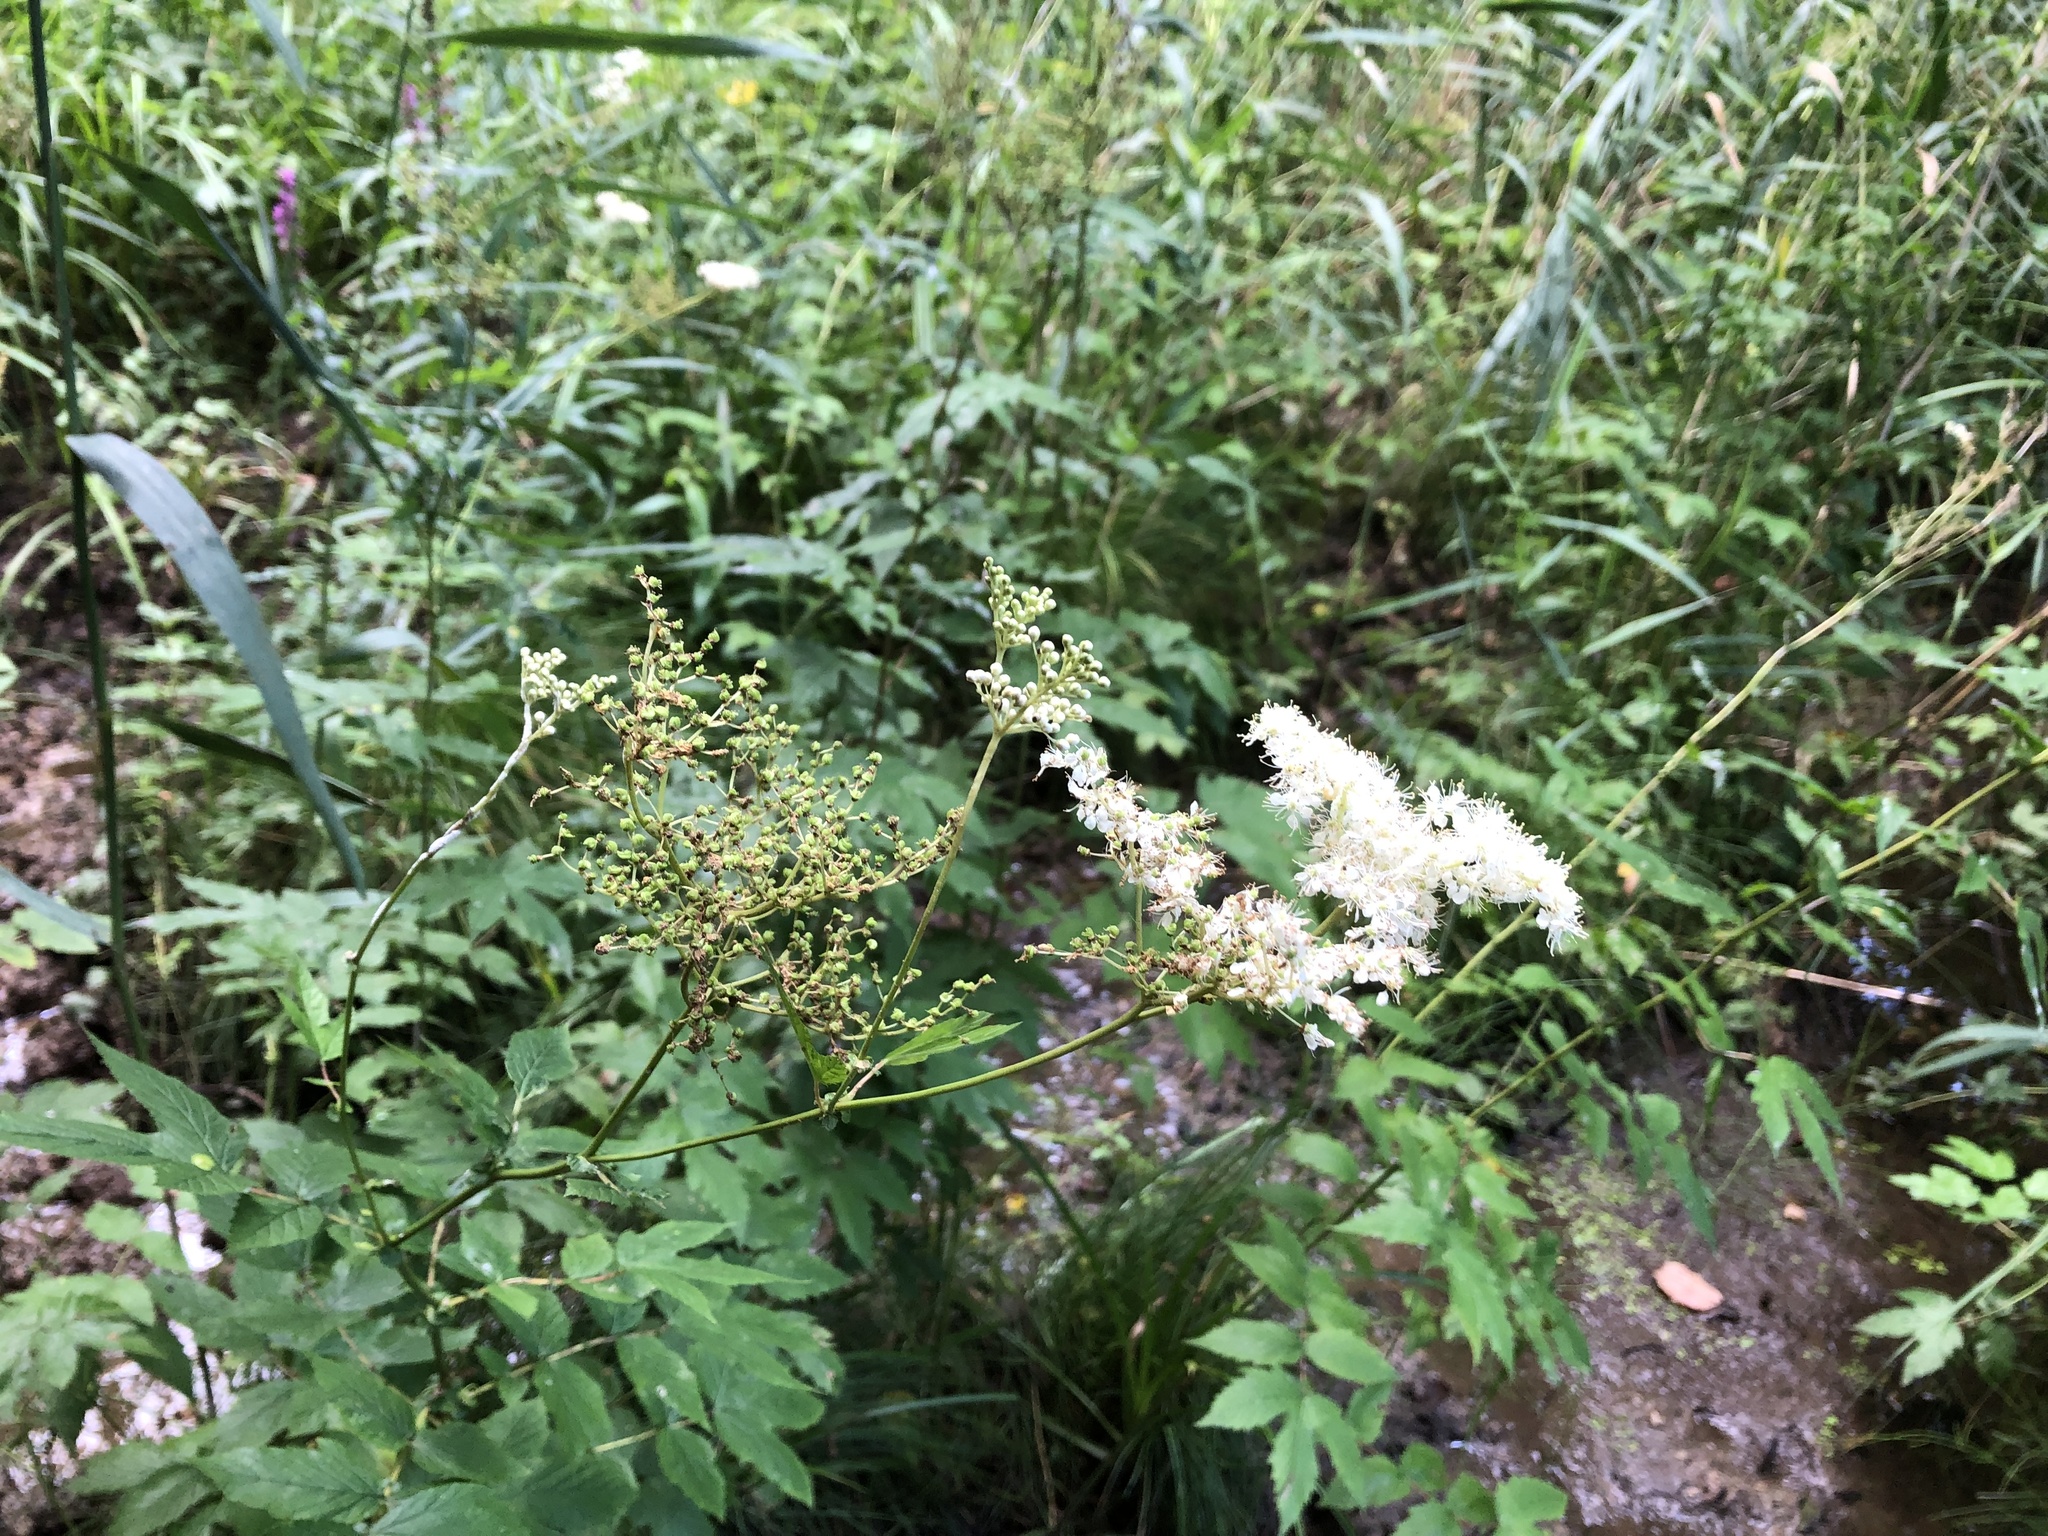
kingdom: Plantae
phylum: Tracheophyta
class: Magnoliopsida
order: Rosales
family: Rosaceae
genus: Filipendula
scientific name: Filipendula ulmaria
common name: Meadowsweet
